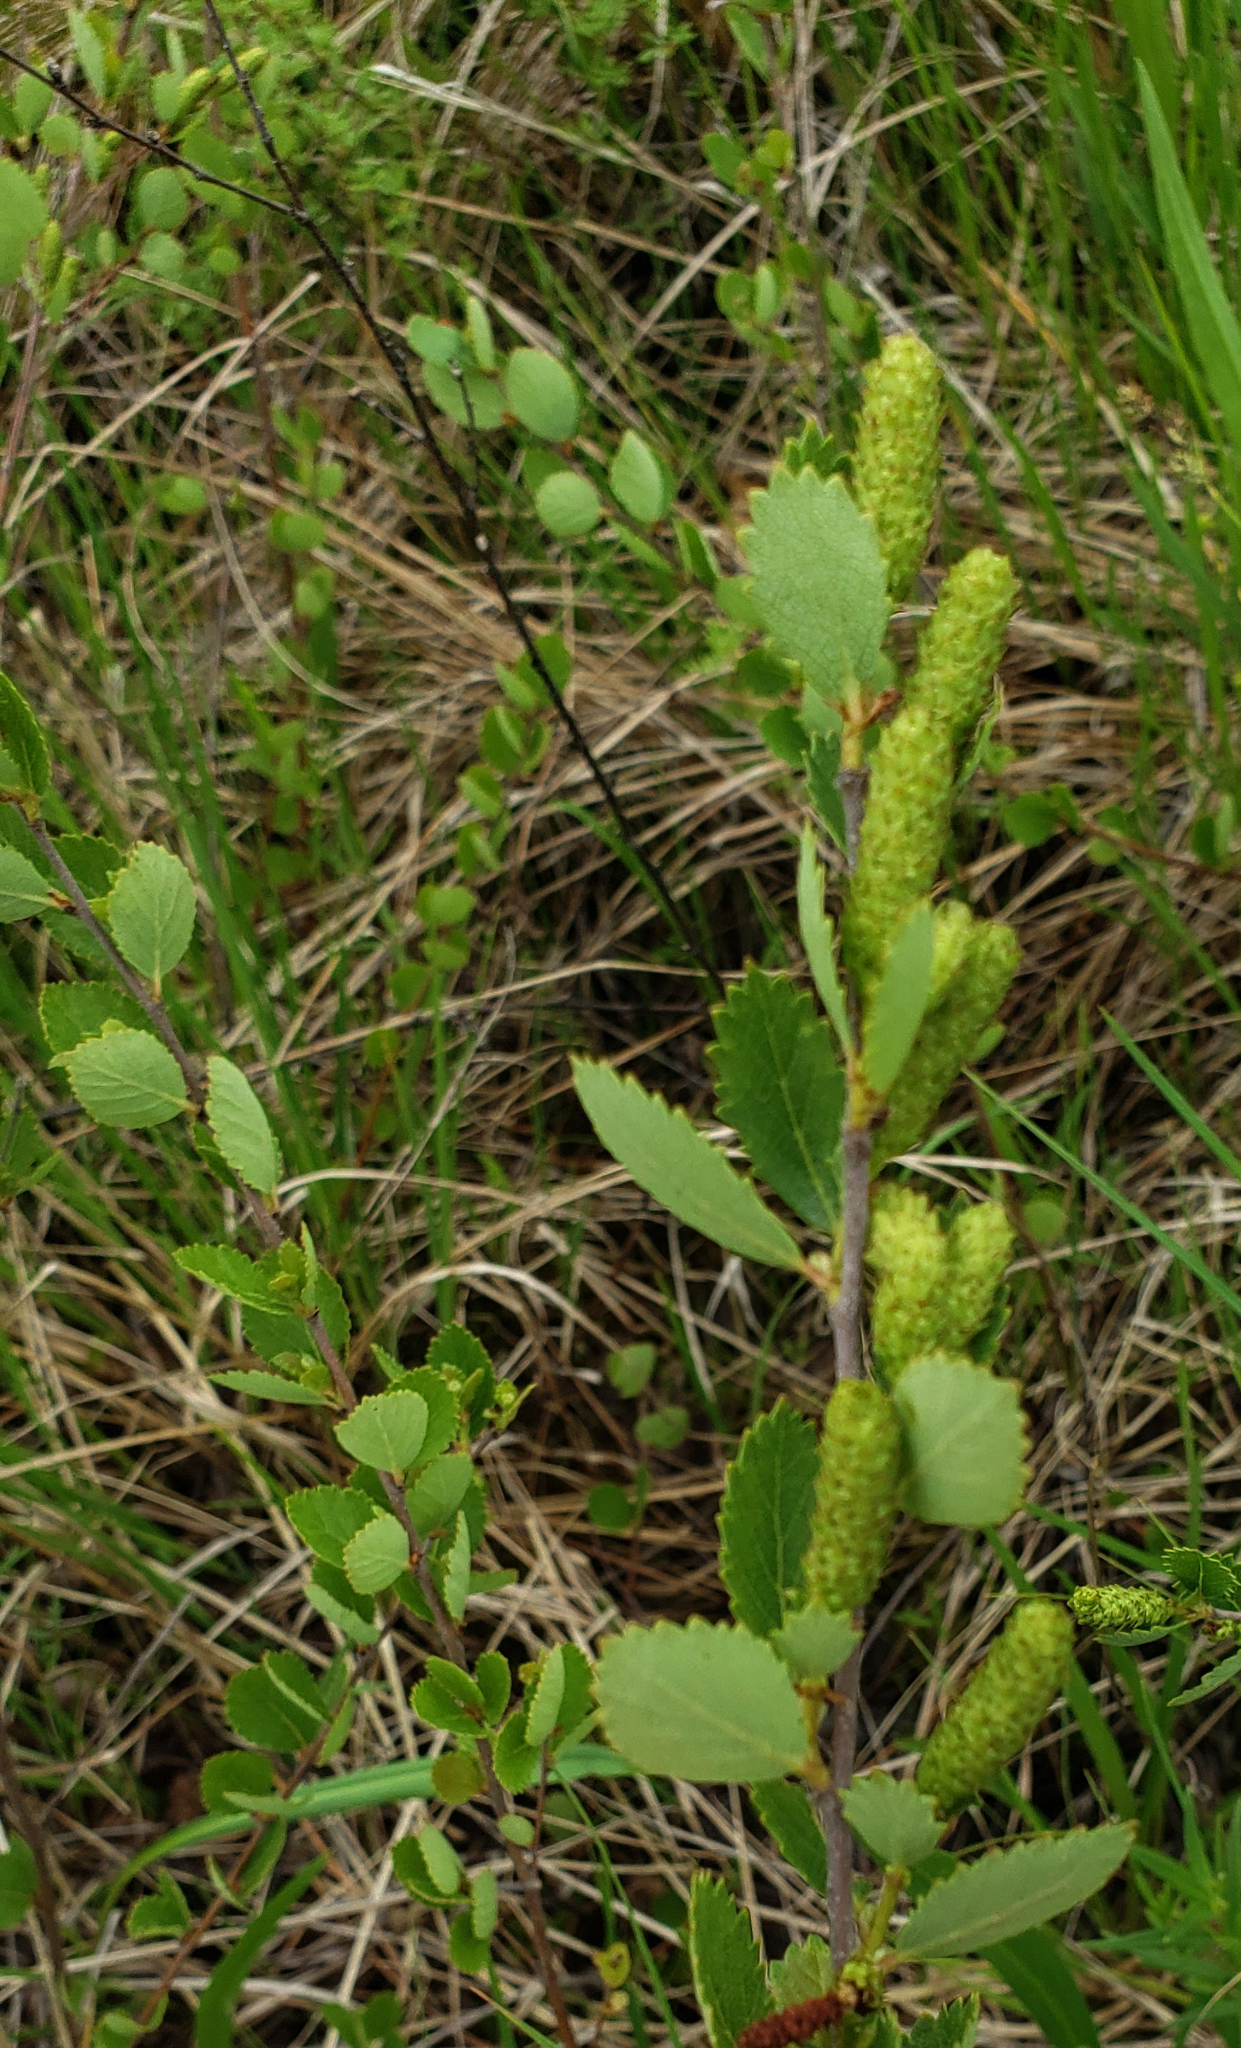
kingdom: Plantae
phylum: Tracheophyta
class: Magnoliopsida
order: Fagales
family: Betulaceae
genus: Betula
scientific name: Betula pumila
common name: Bog birch
